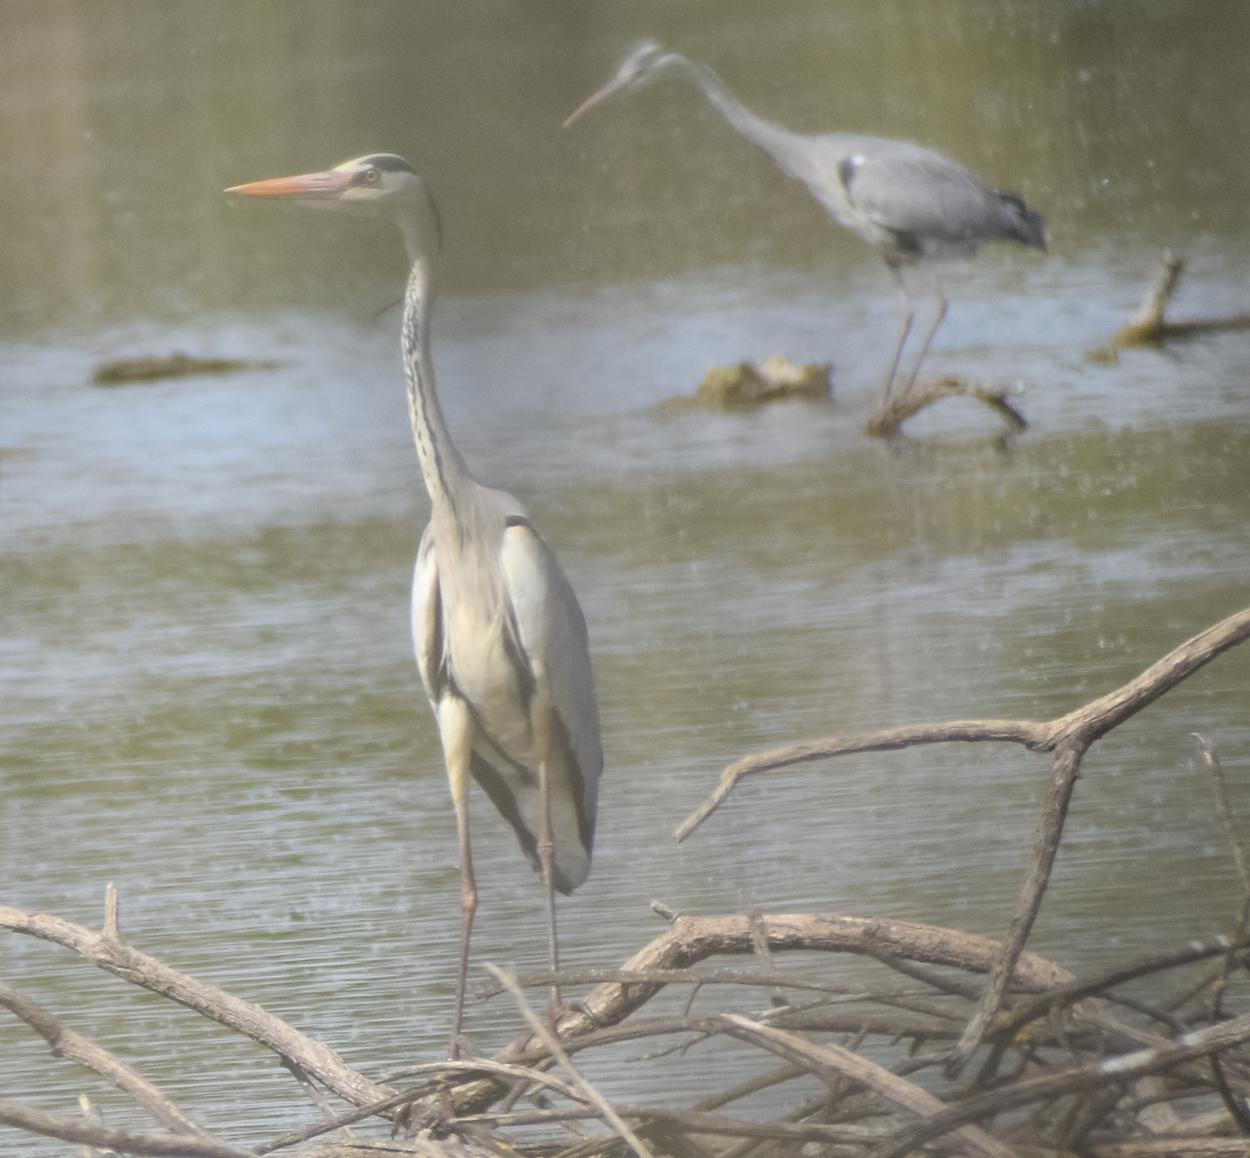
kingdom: Animalia
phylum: Chordata
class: Aves
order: Pelecaniformes
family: Ardeidae
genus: Ardea
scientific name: Ardea cinerea
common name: Grey heron
